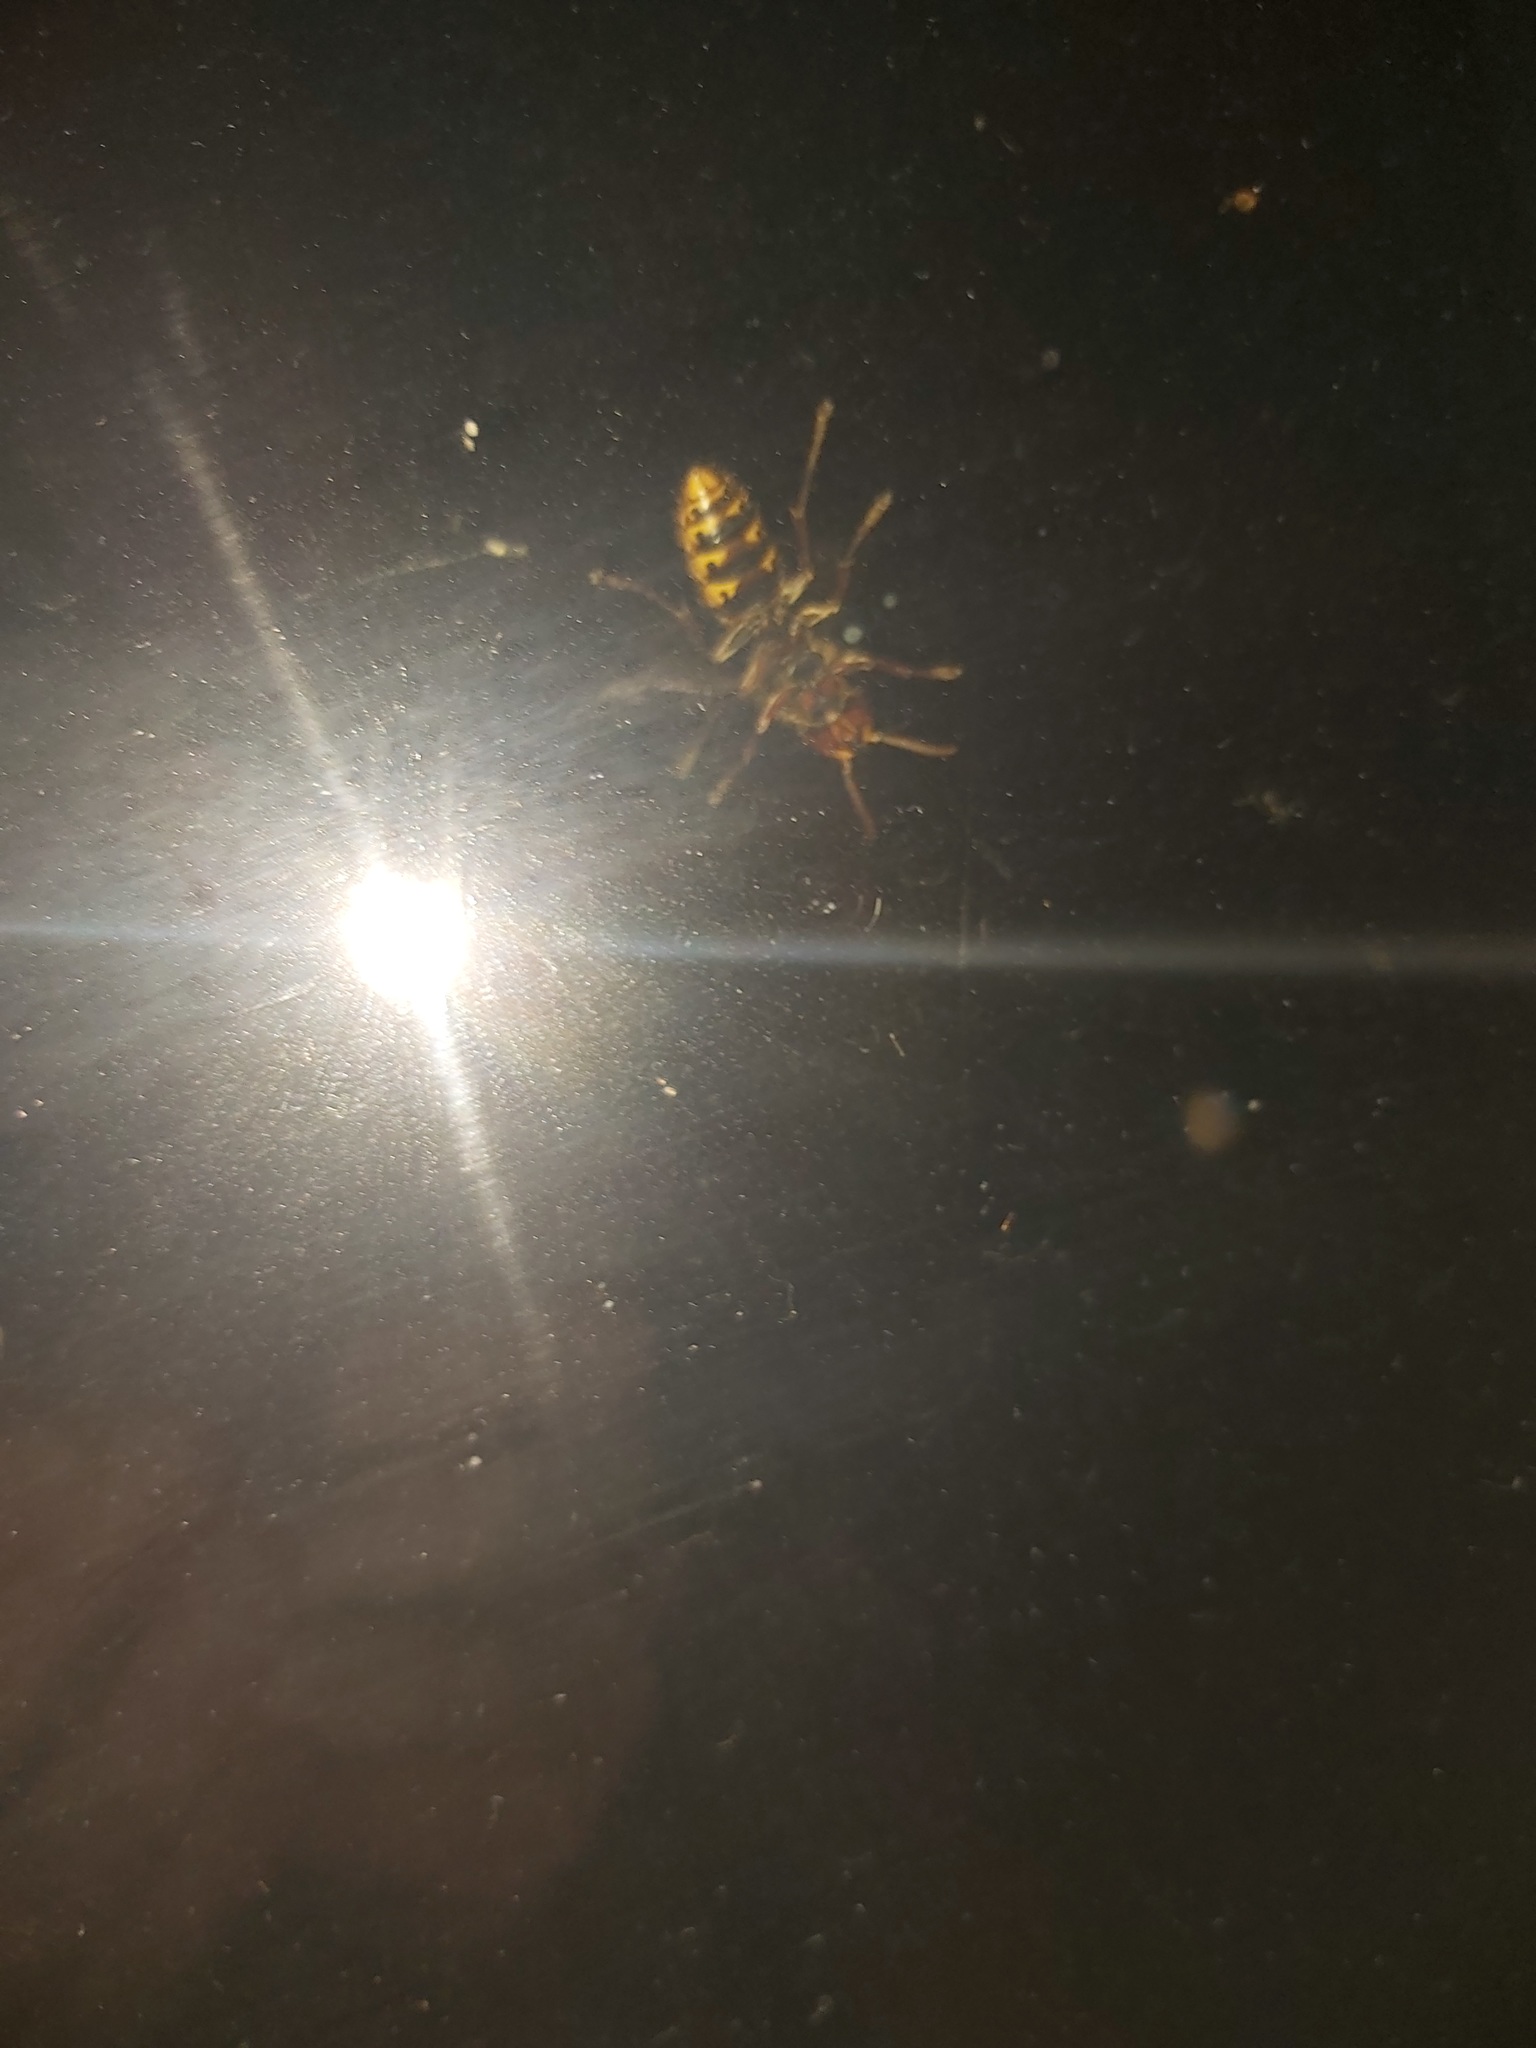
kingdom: Animalia
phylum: Arthropoda
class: Insecta
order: Hymenoptera
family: Vespidae
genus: Vespa
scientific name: Vespa crabro
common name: Hornet
